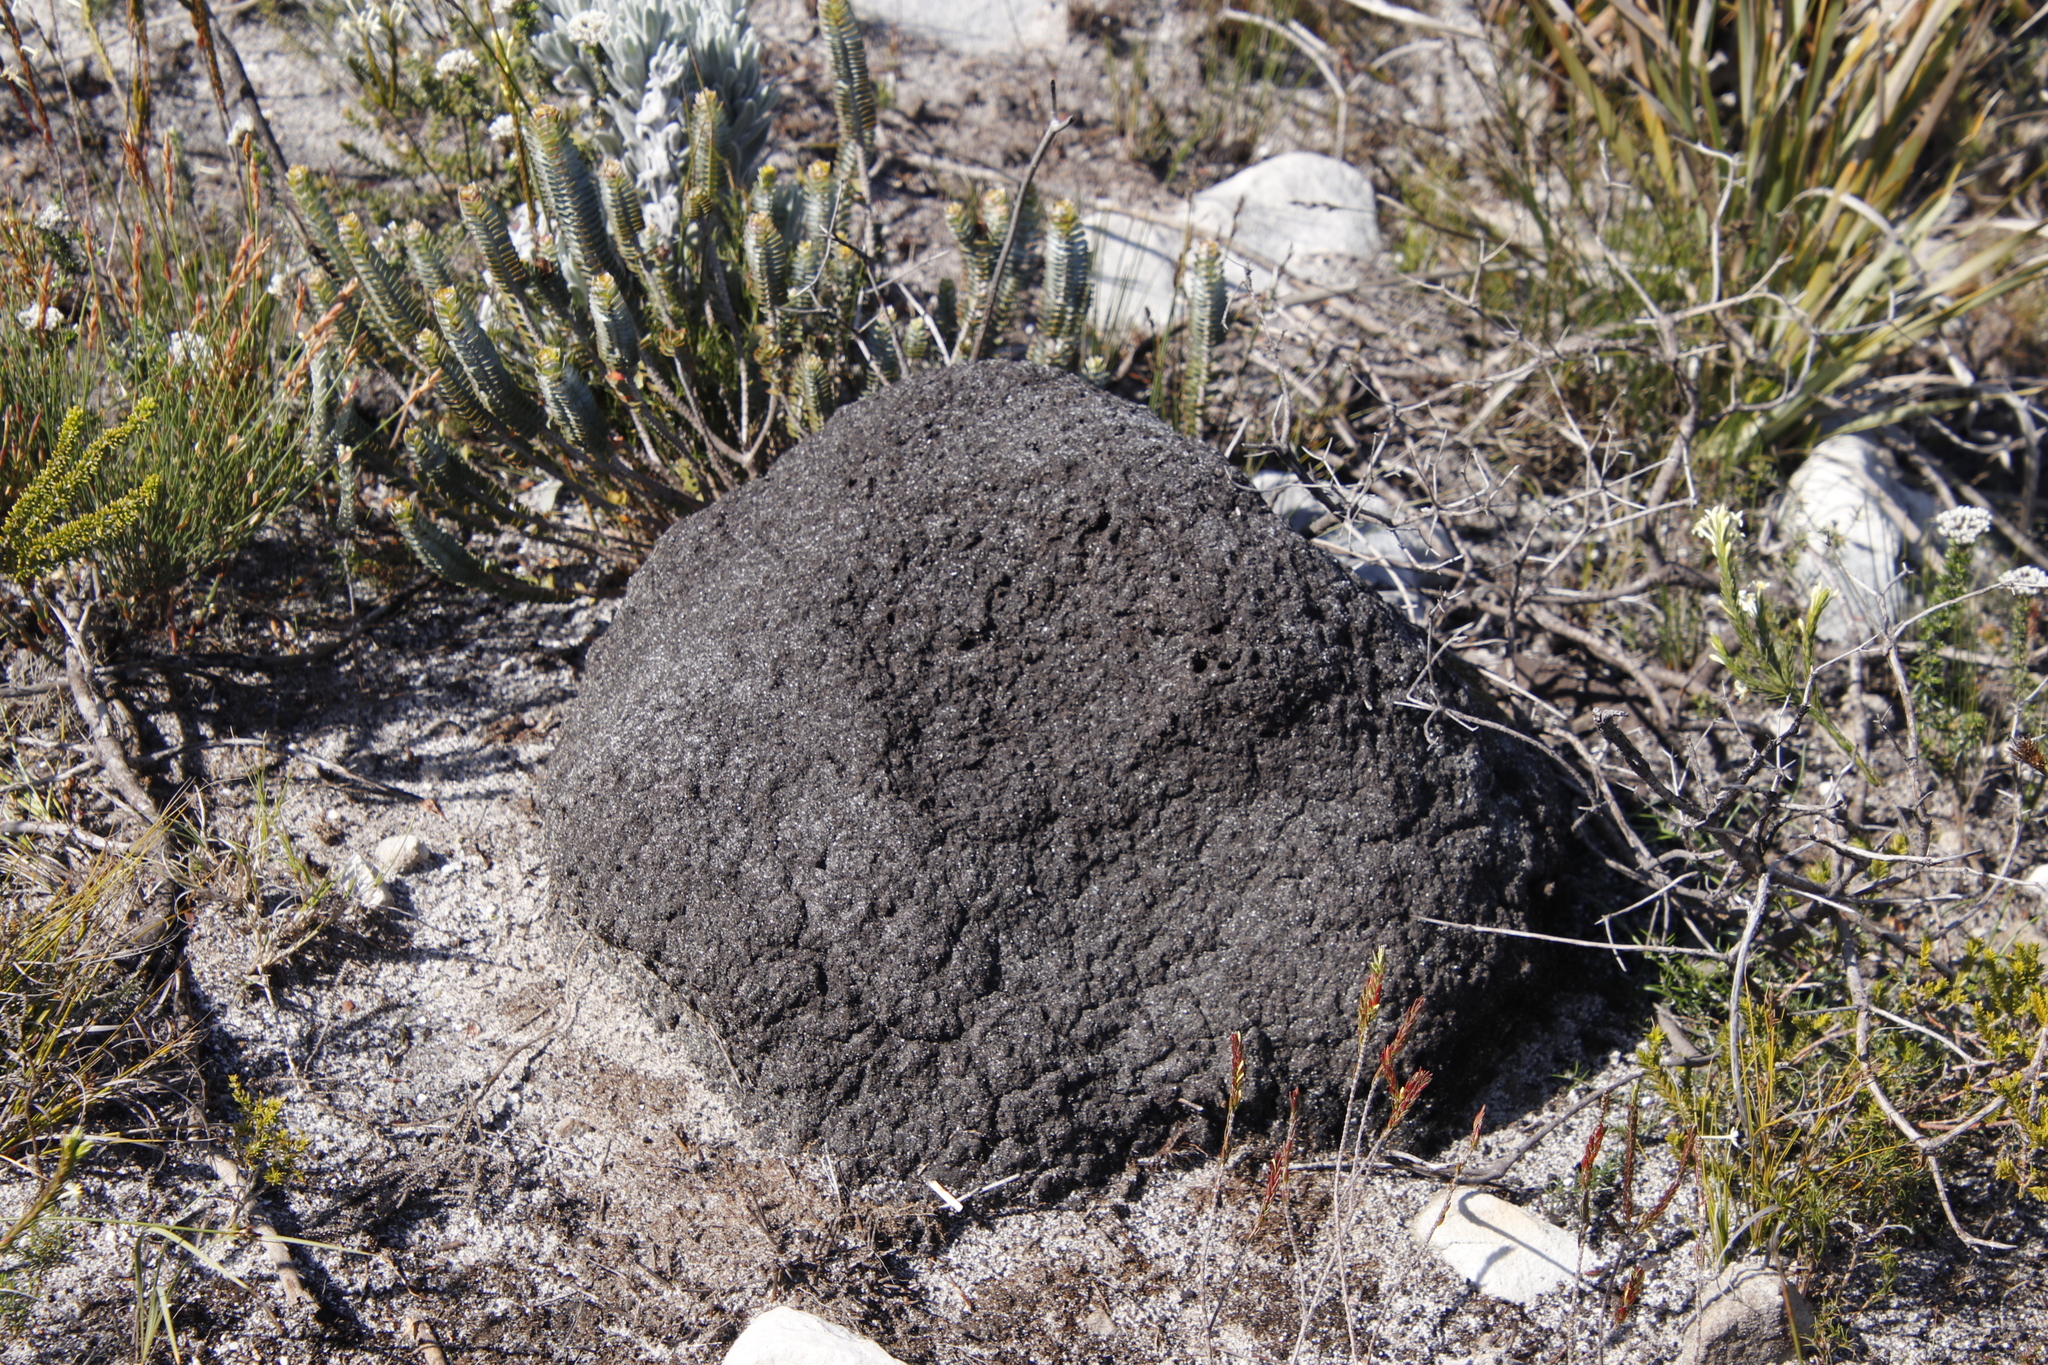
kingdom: Animalia
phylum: Arthropoda
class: Insecta
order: Blattodea
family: Termitidae
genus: Amitermes
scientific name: Amitermes hastatus
